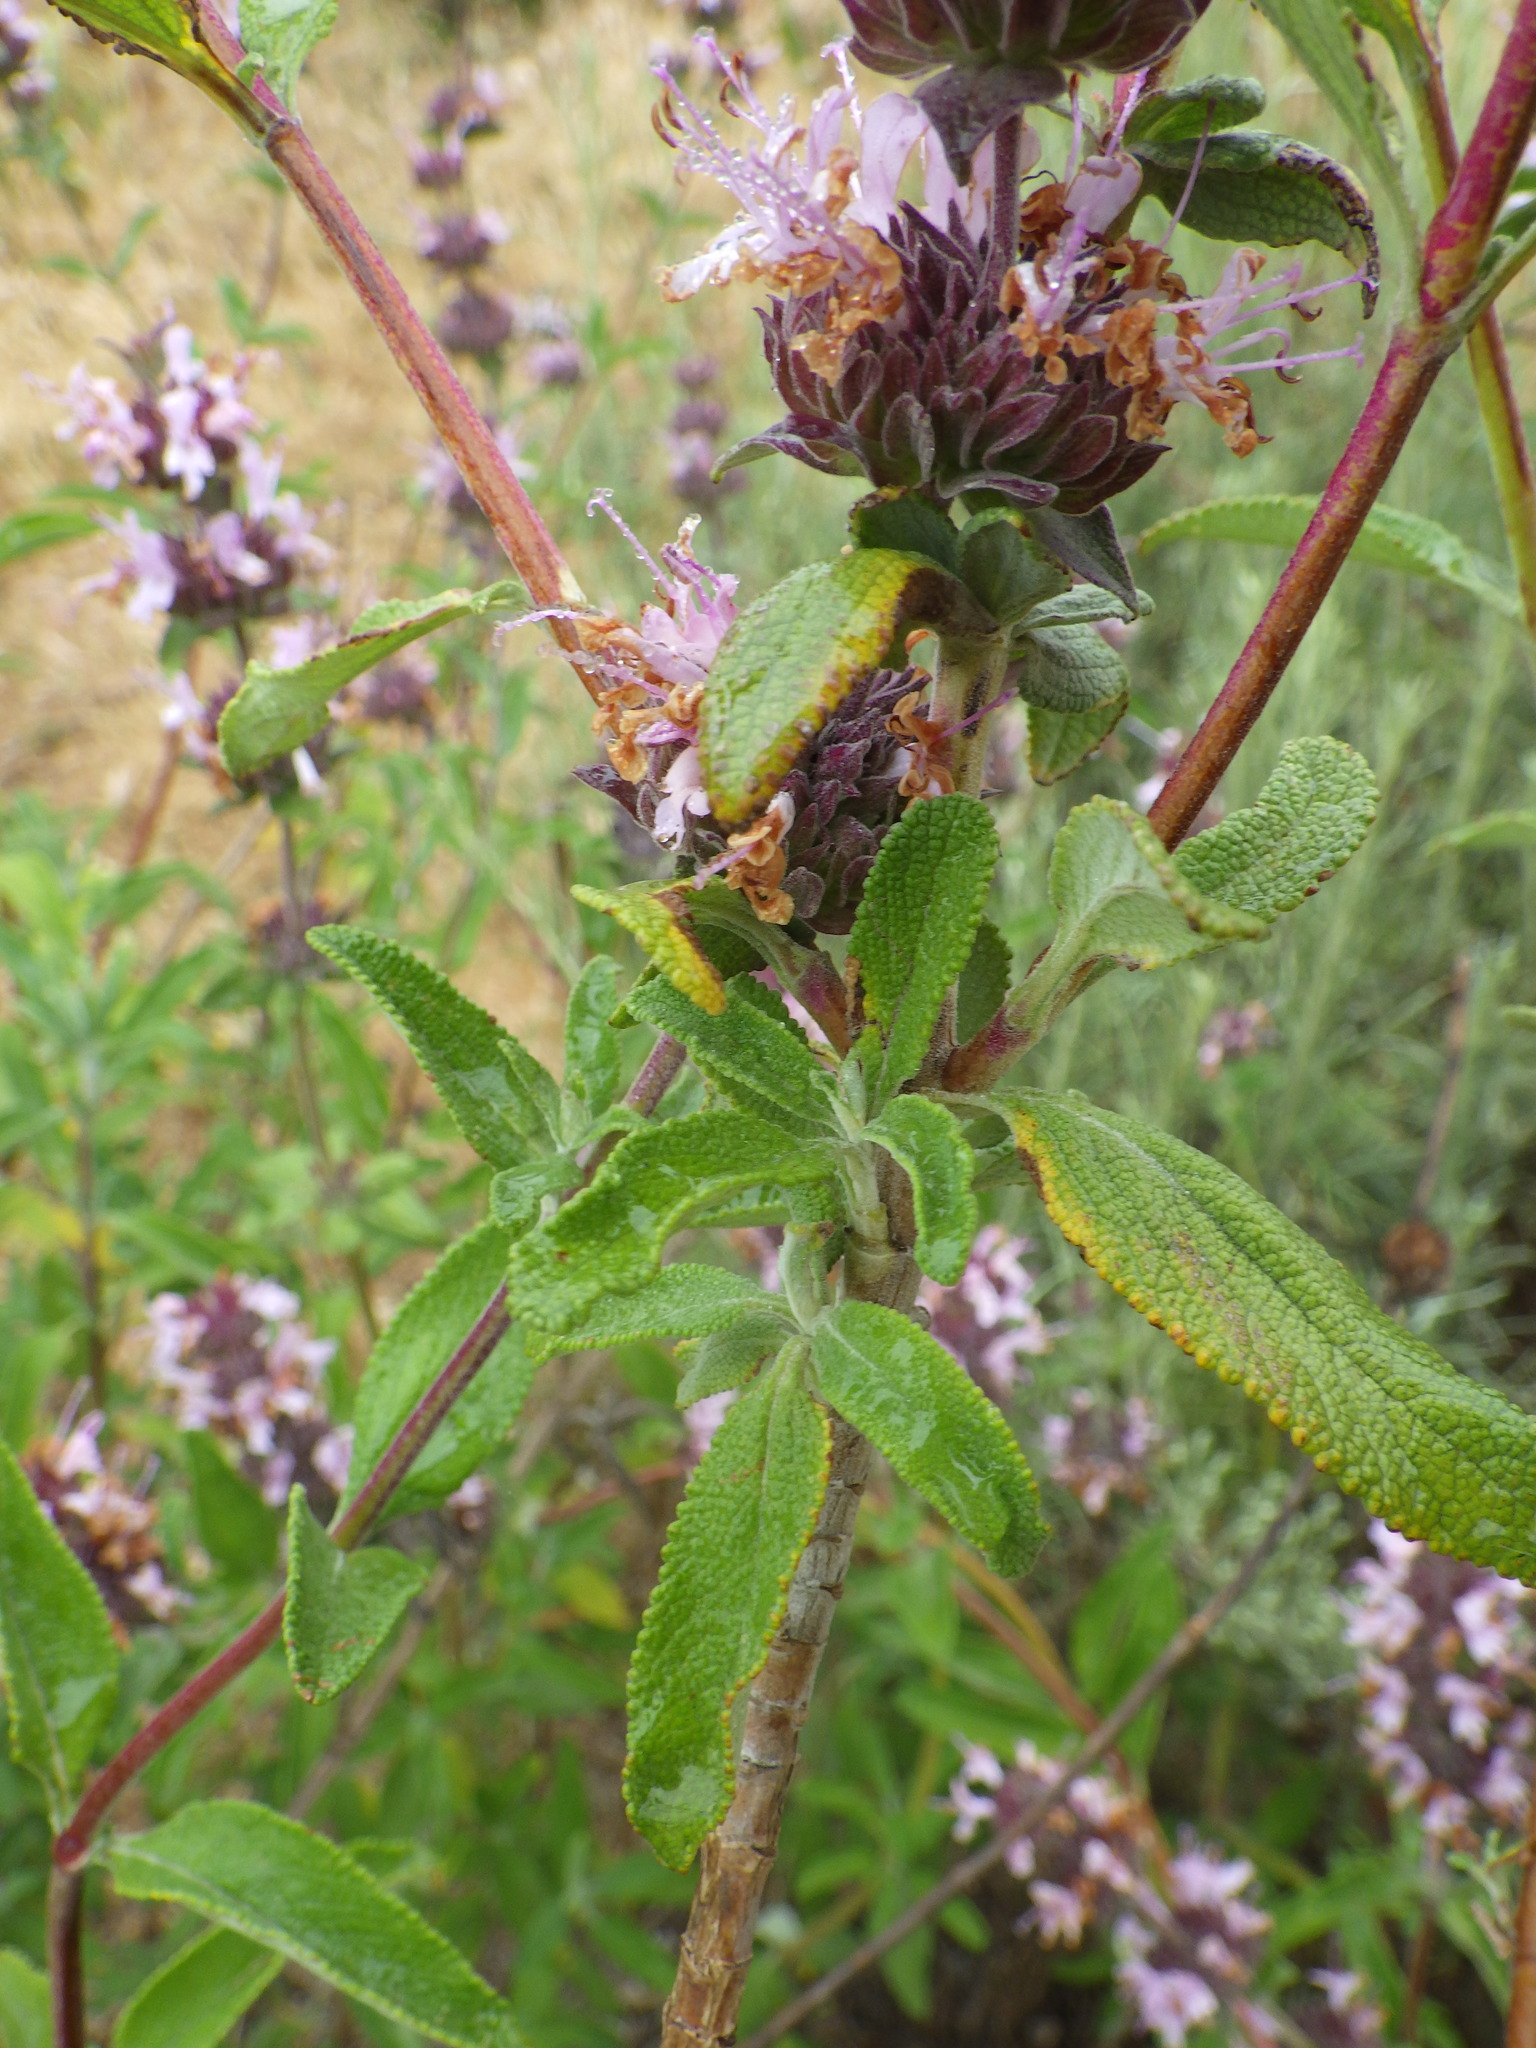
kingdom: Plantae
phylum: Tracheophyta
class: Magnoliopsida
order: Lamiales
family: Lamiaceae
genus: Salvia
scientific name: Salvia mellifera
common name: Black sage
